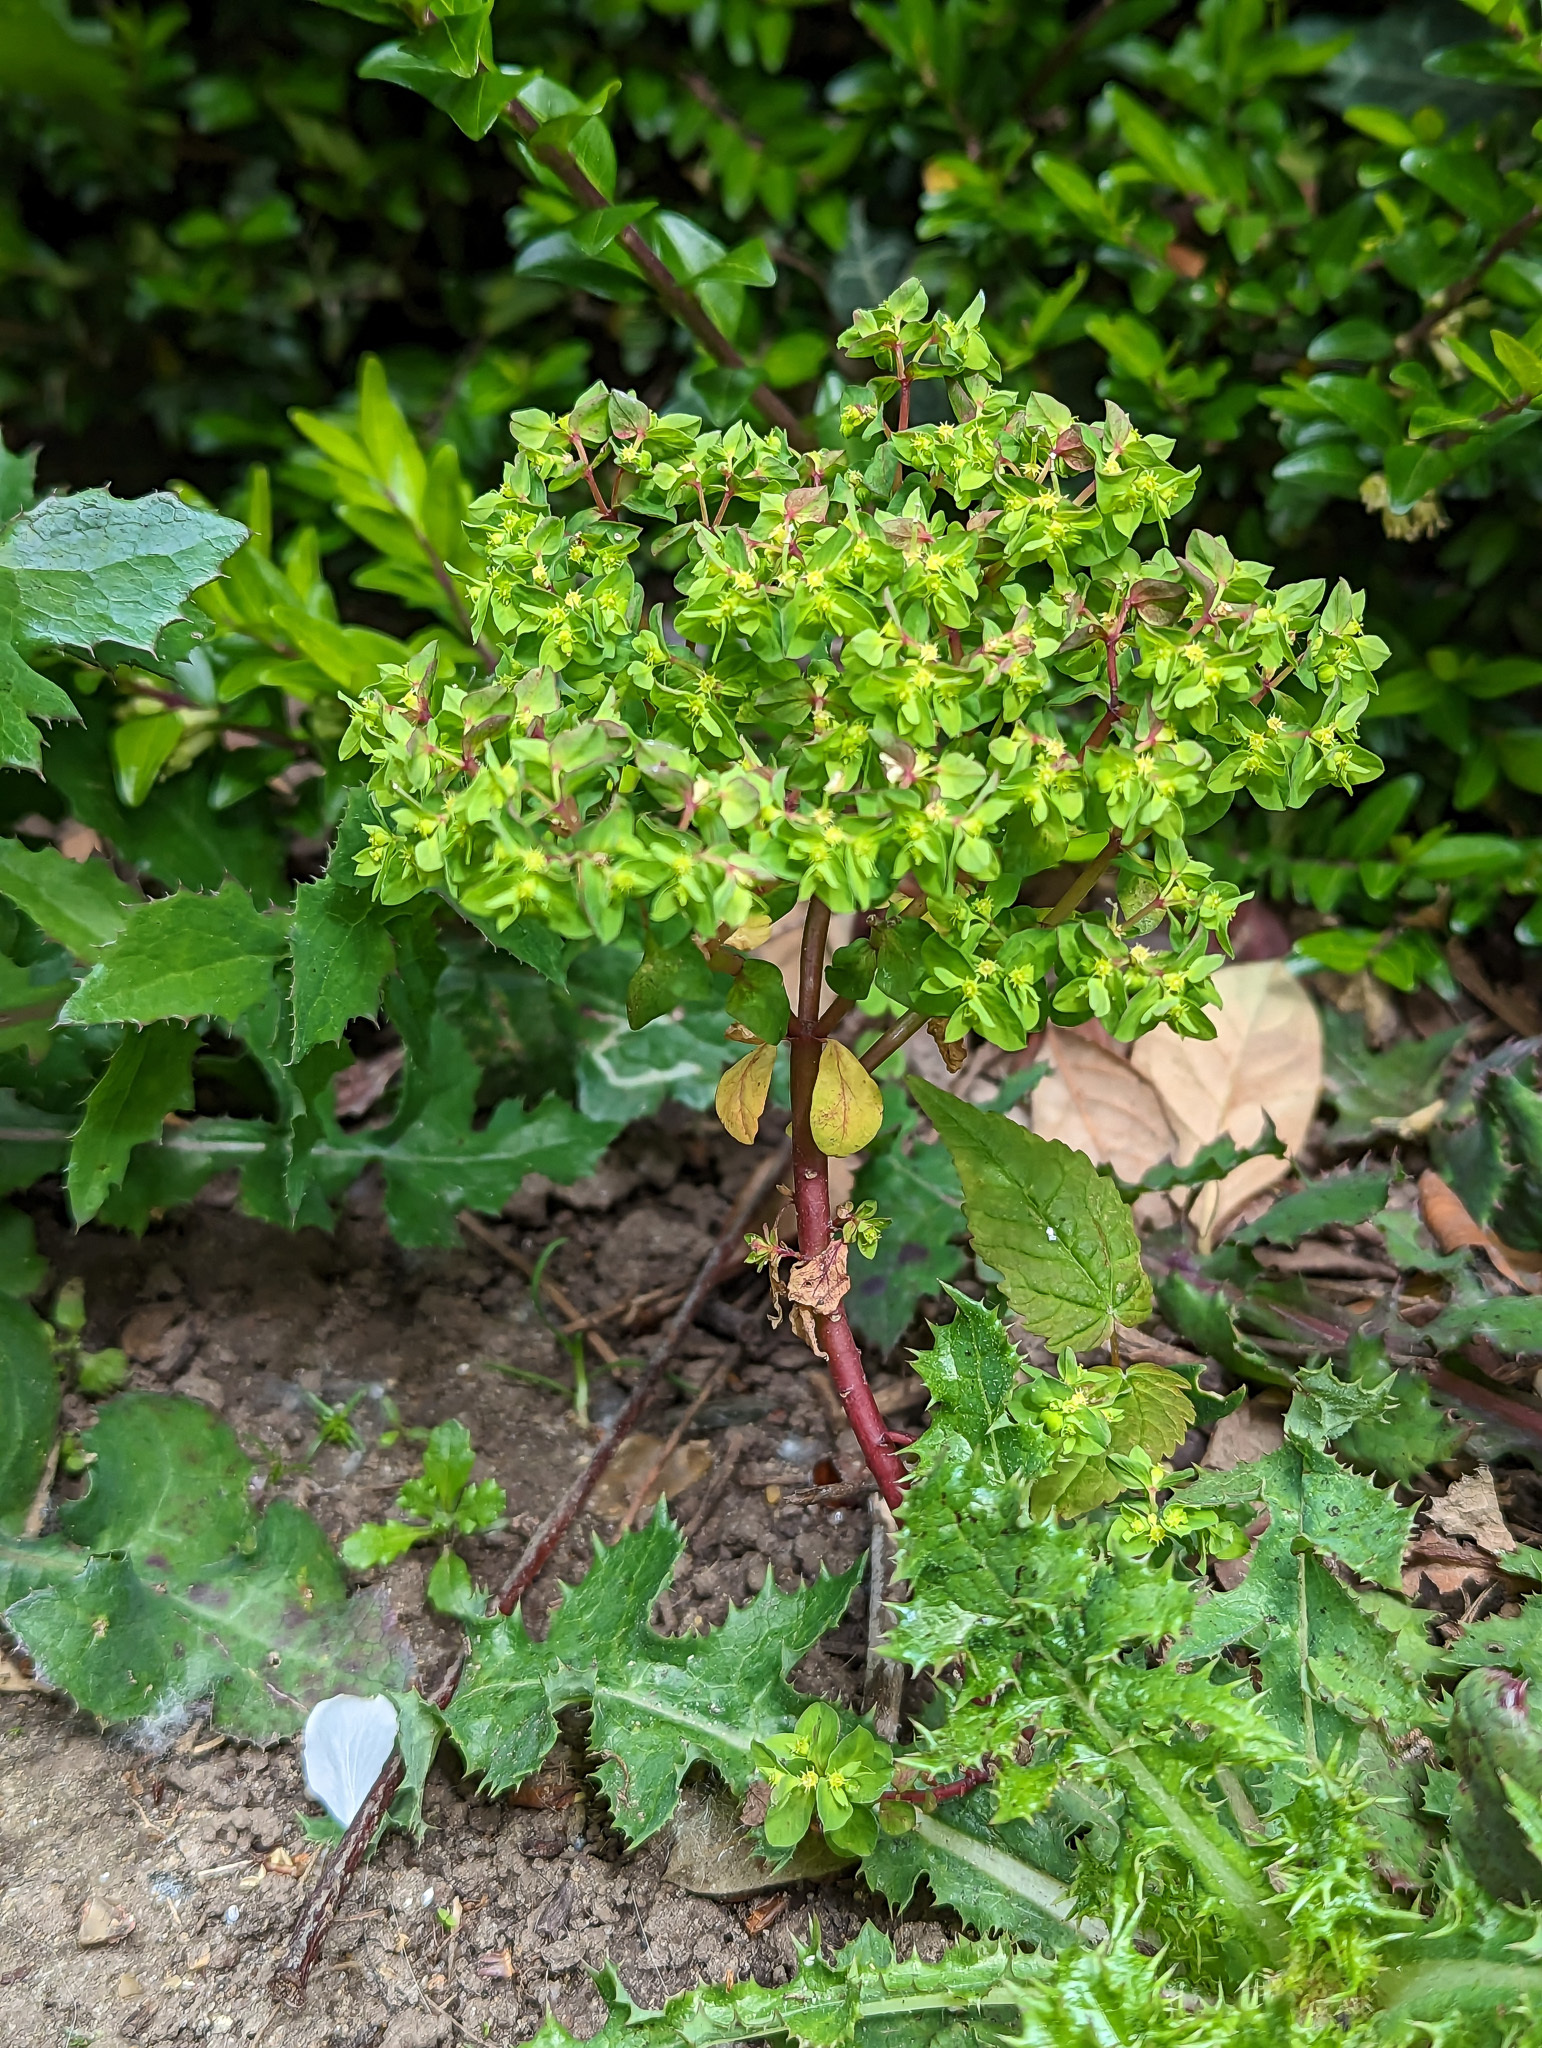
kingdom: Plantae
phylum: Tracheophyta
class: Magnoliopsida
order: Malpighiales
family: Euphorbiaceae
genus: Euphorbia
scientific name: Euphorbia peplus
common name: Petty spurge
